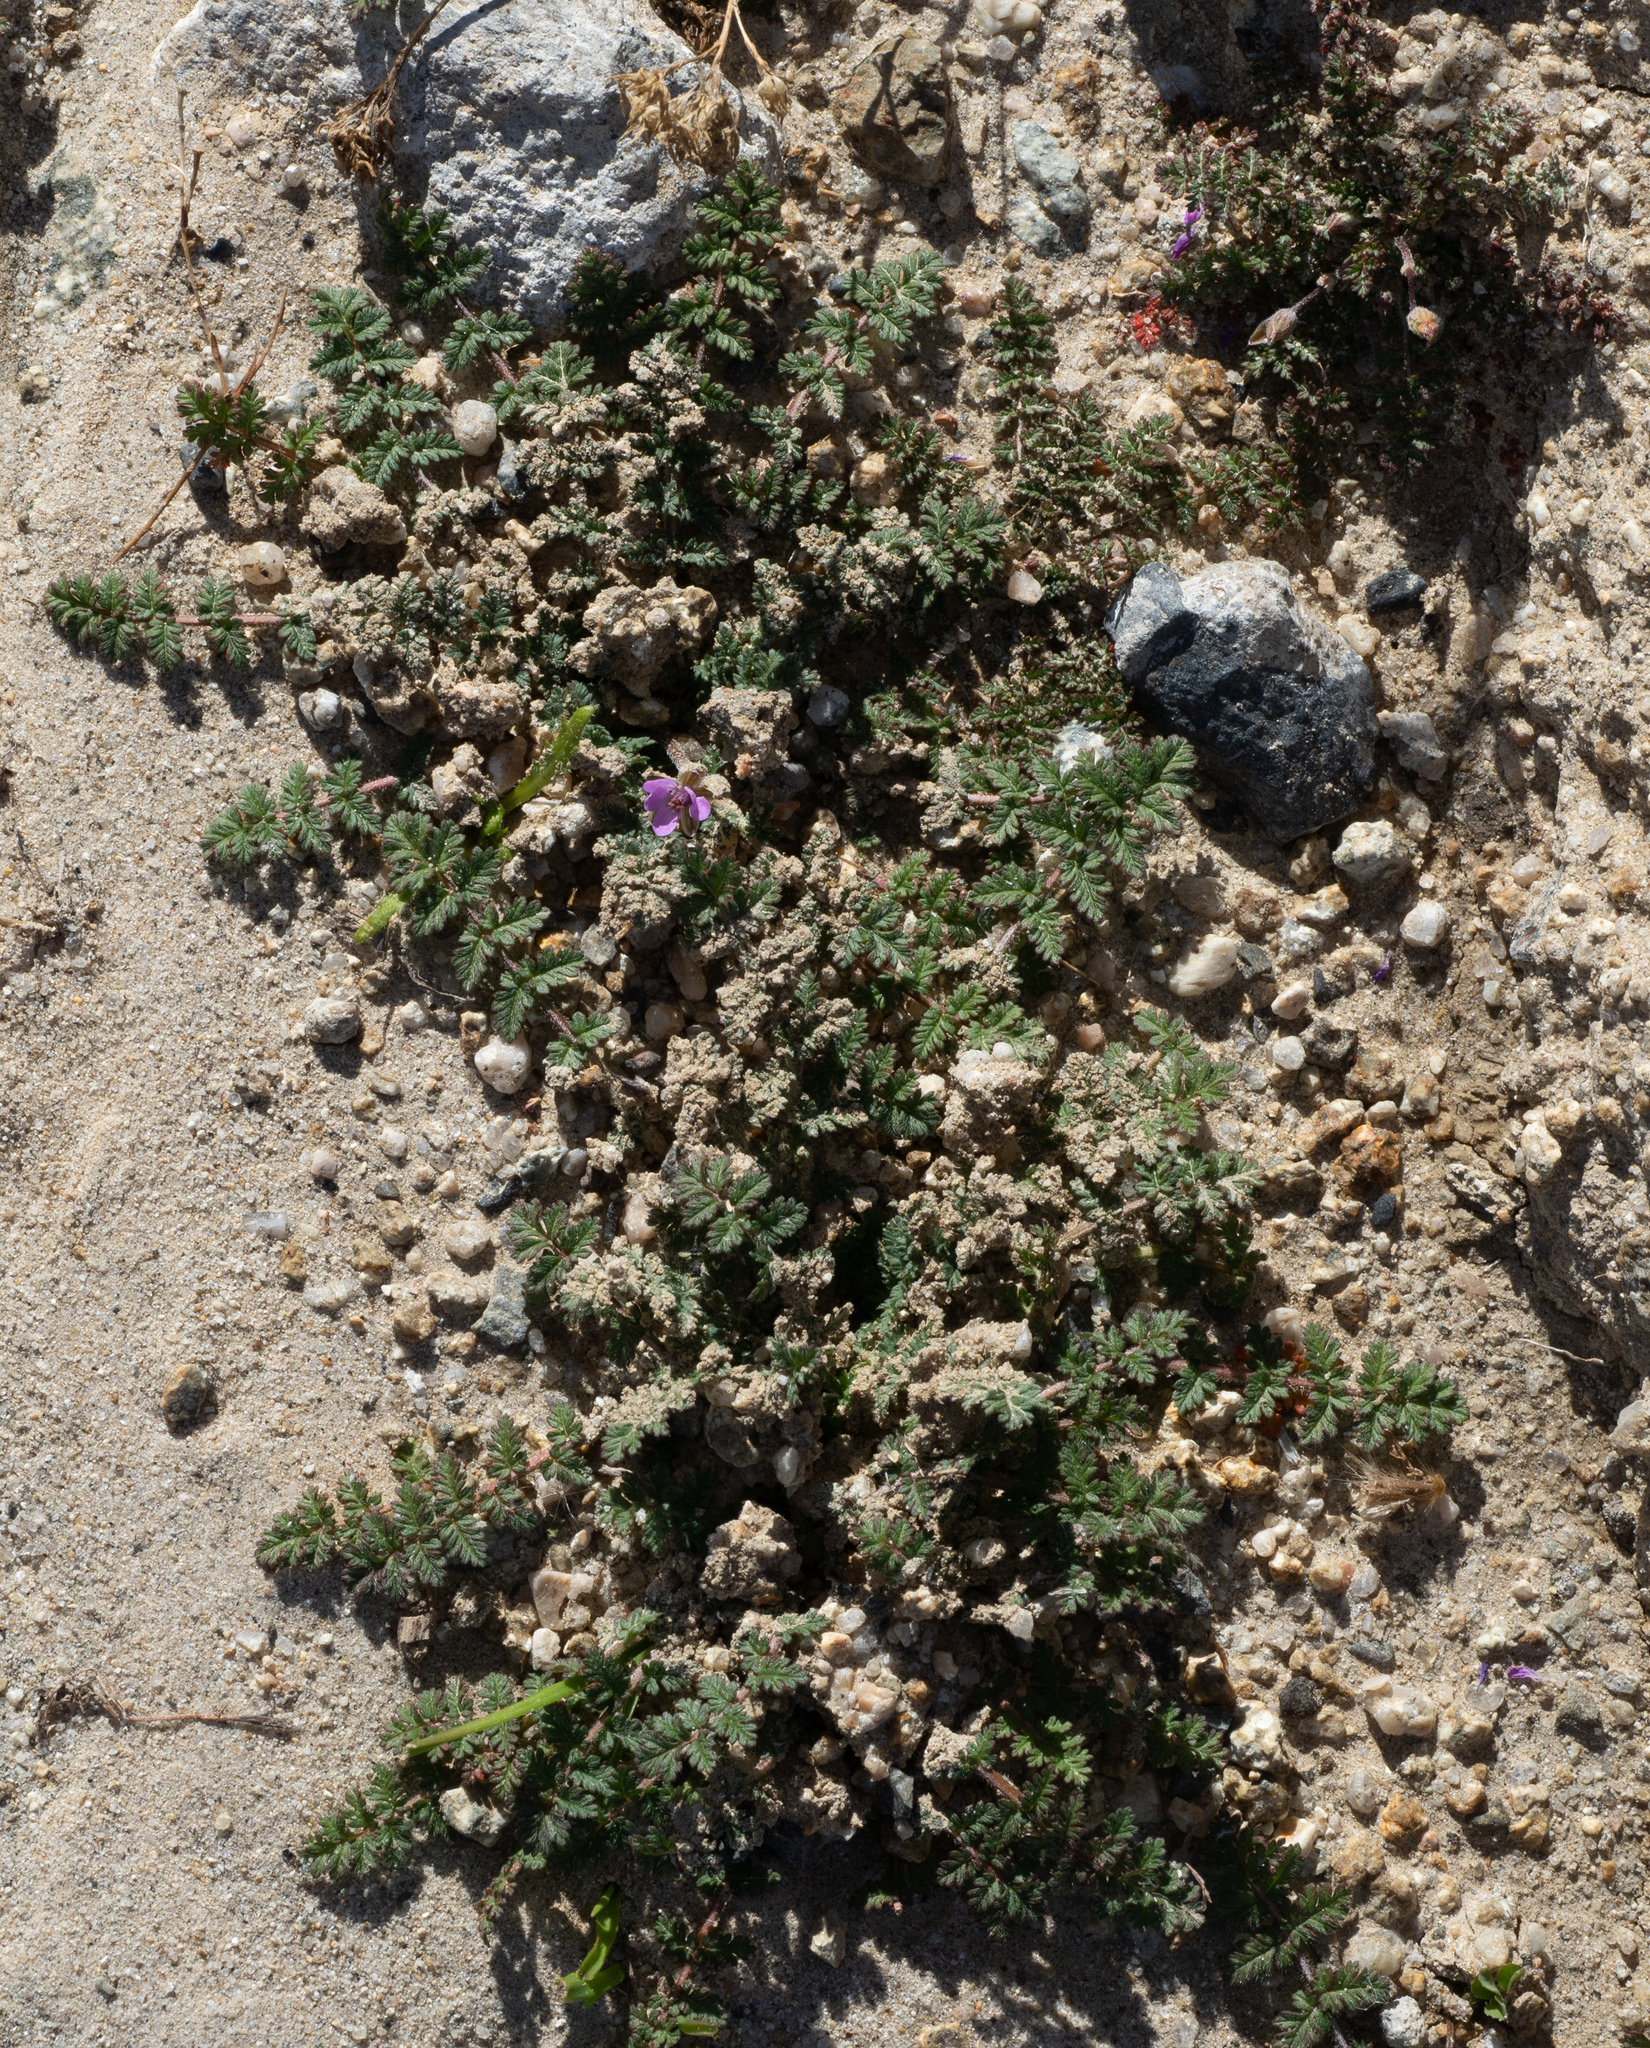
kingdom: Plantae
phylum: Tracheophyta
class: Magnoliopsida
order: Geraniales
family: Geraniaceae
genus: Erodium
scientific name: Erodium cicutarium
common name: Common stork's-bill
